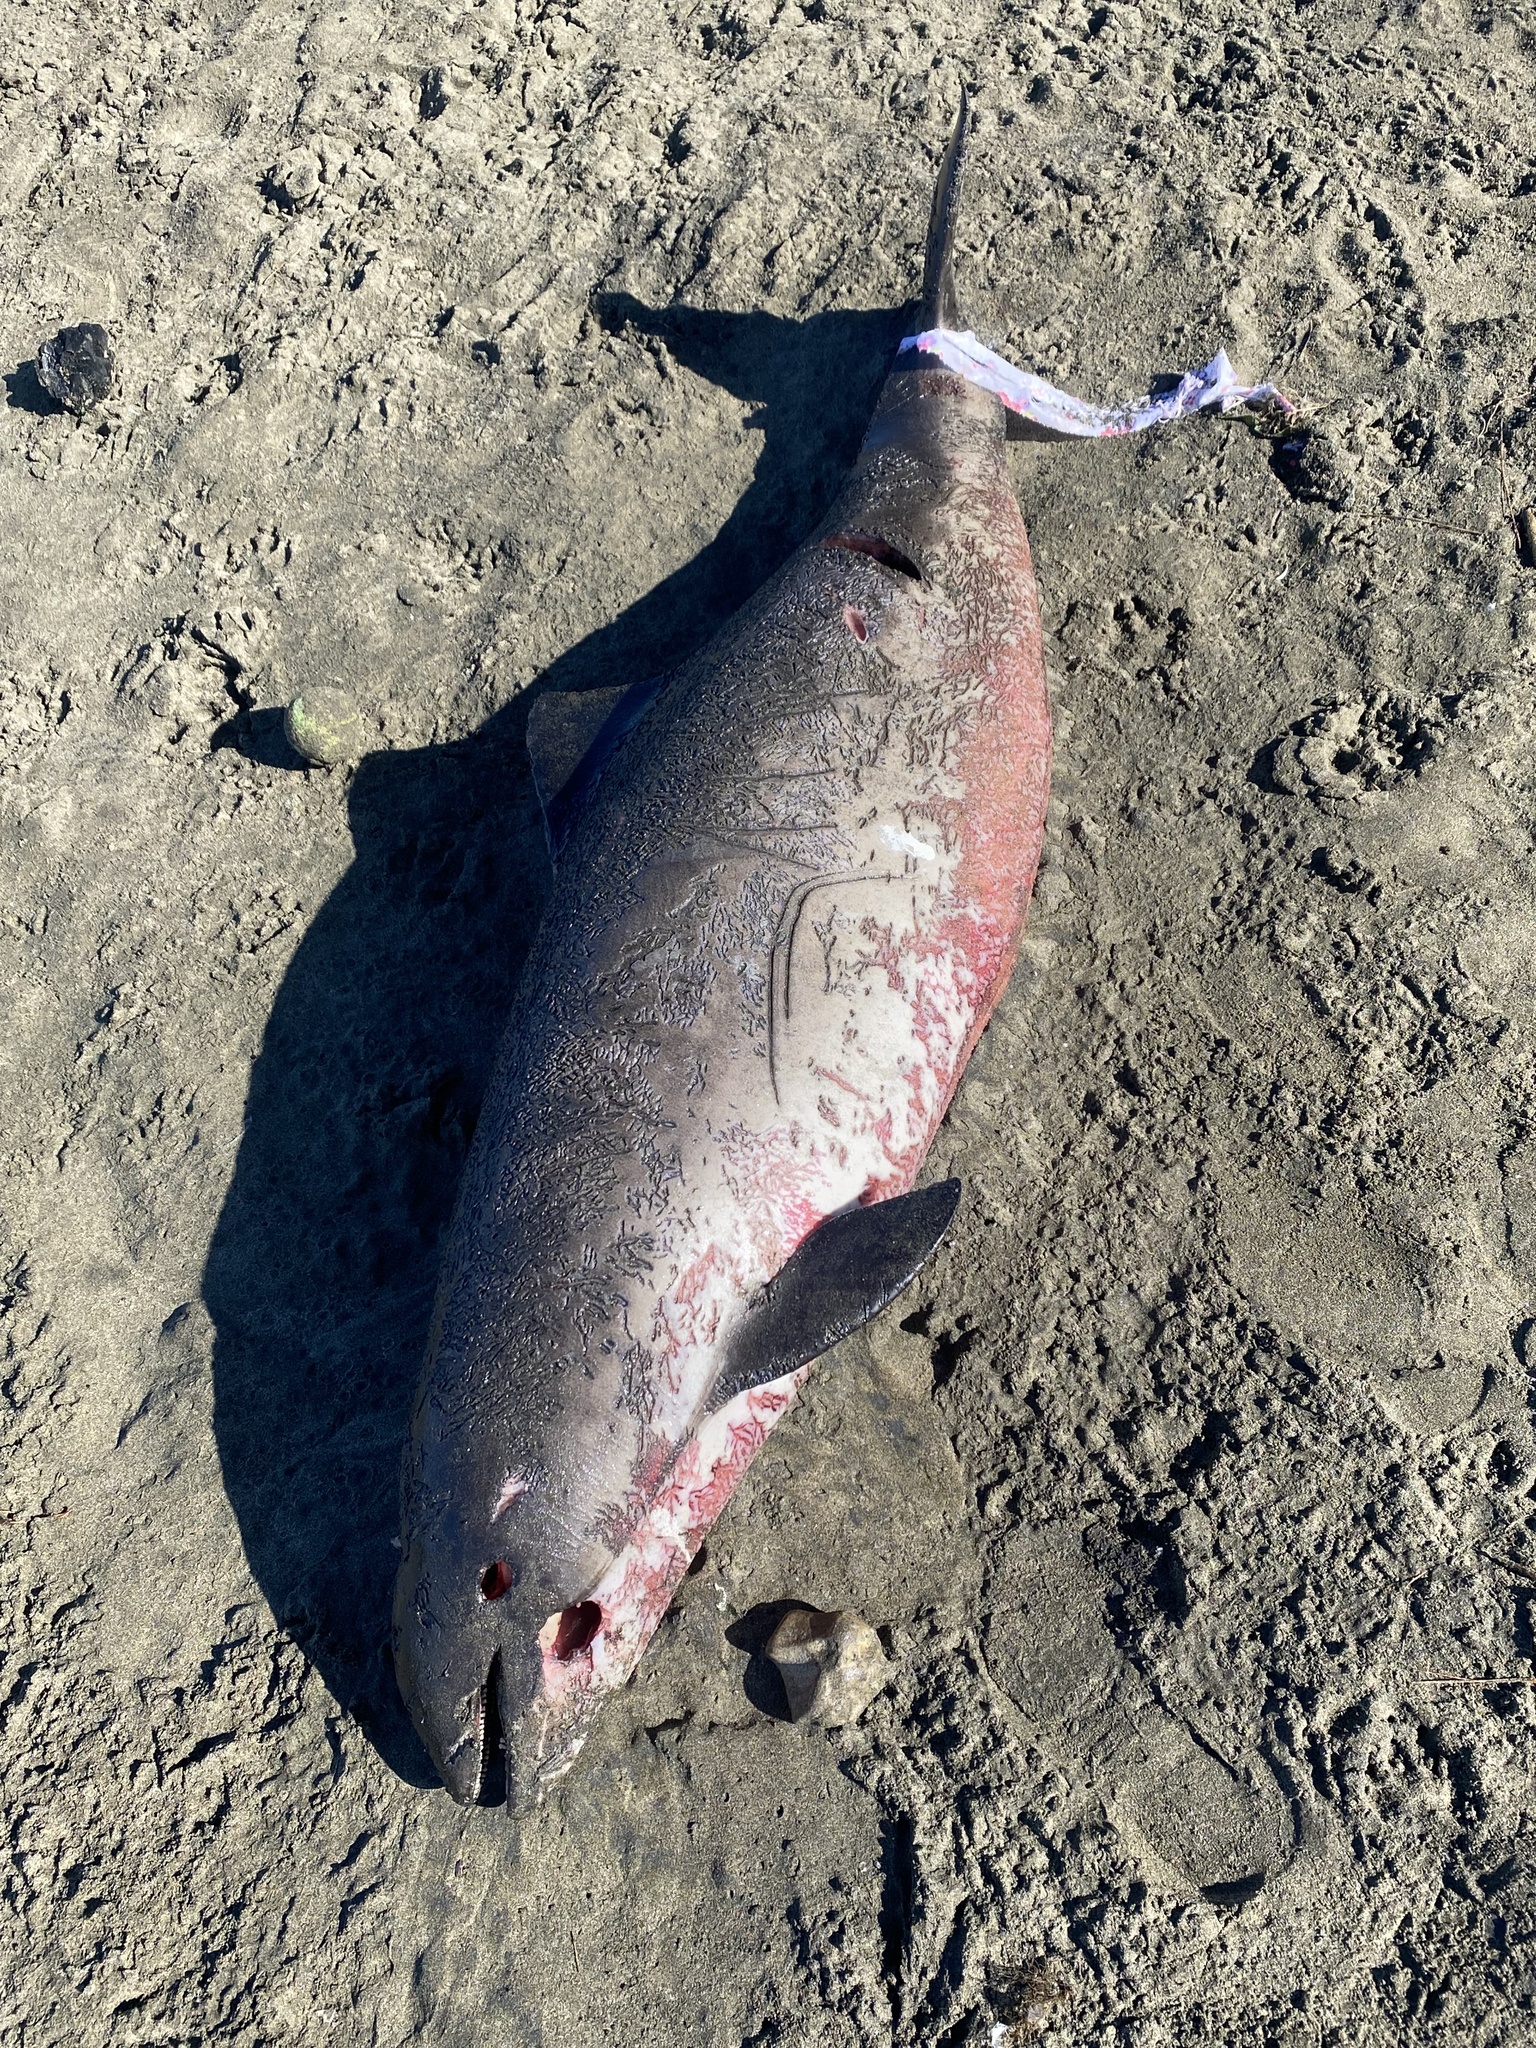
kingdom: Animalia
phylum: Chordata
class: Mammalia
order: Cetacea
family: Phocoenidae
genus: Phocoena
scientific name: Phocoena phocoena
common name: Harbor porpoise
